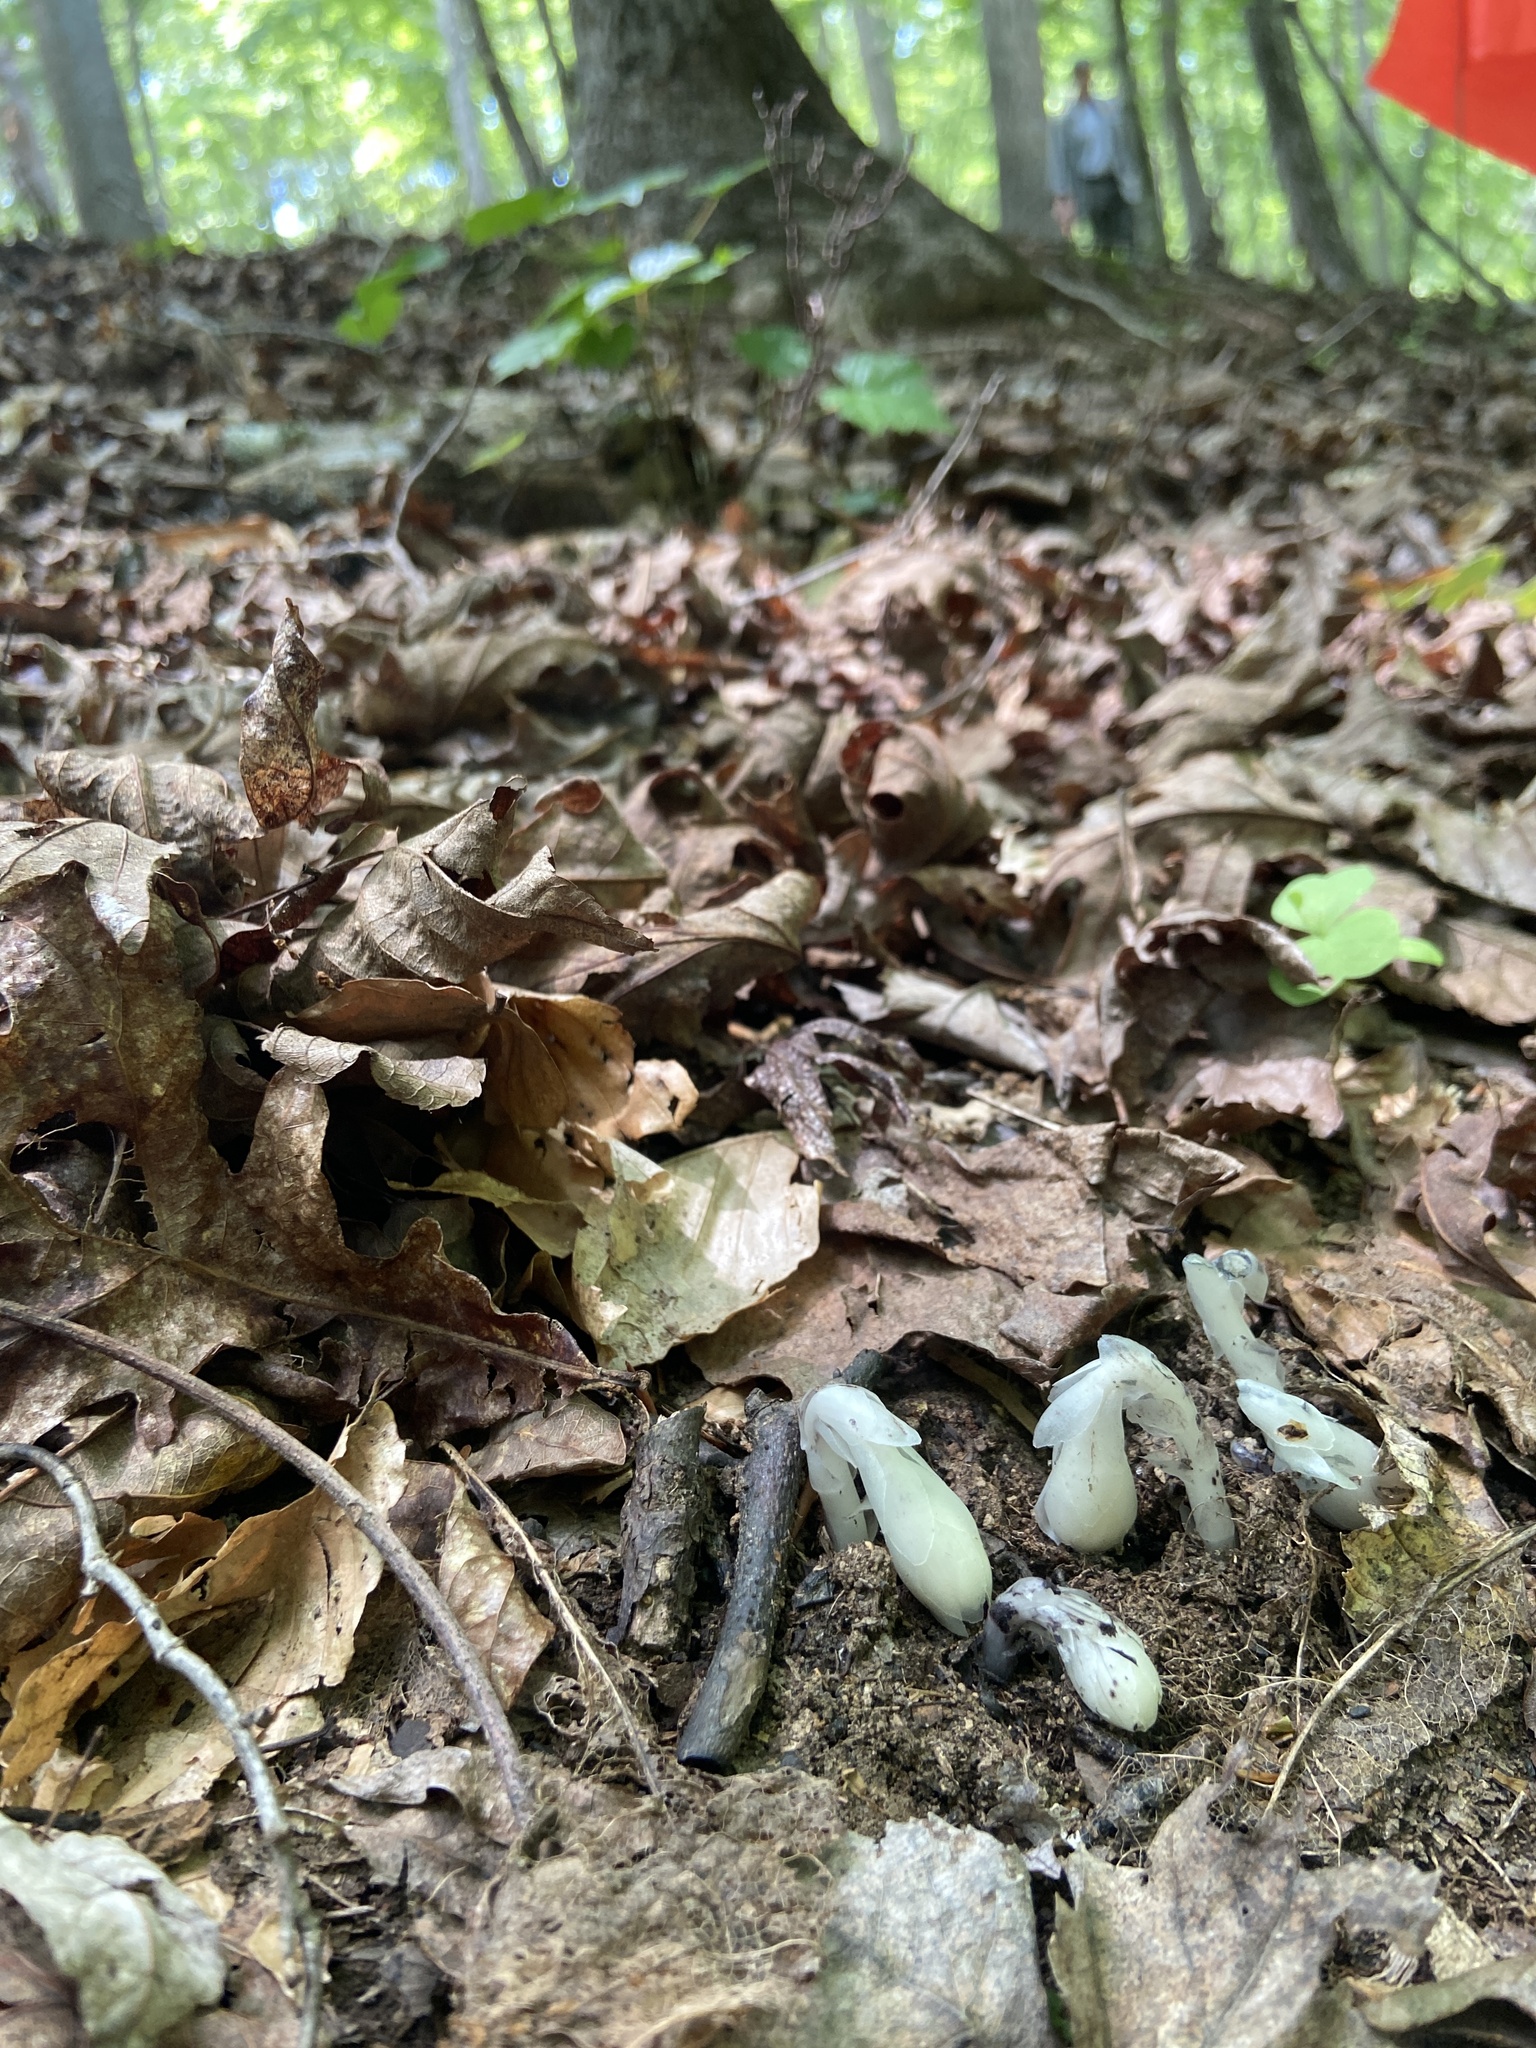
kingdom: Plantae
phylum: Tracheophyta
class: Magnoliopsida
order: Ericales
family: Ericaceae
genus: Monotropa
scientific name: Monotropa uniflora
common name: Convulsion root
